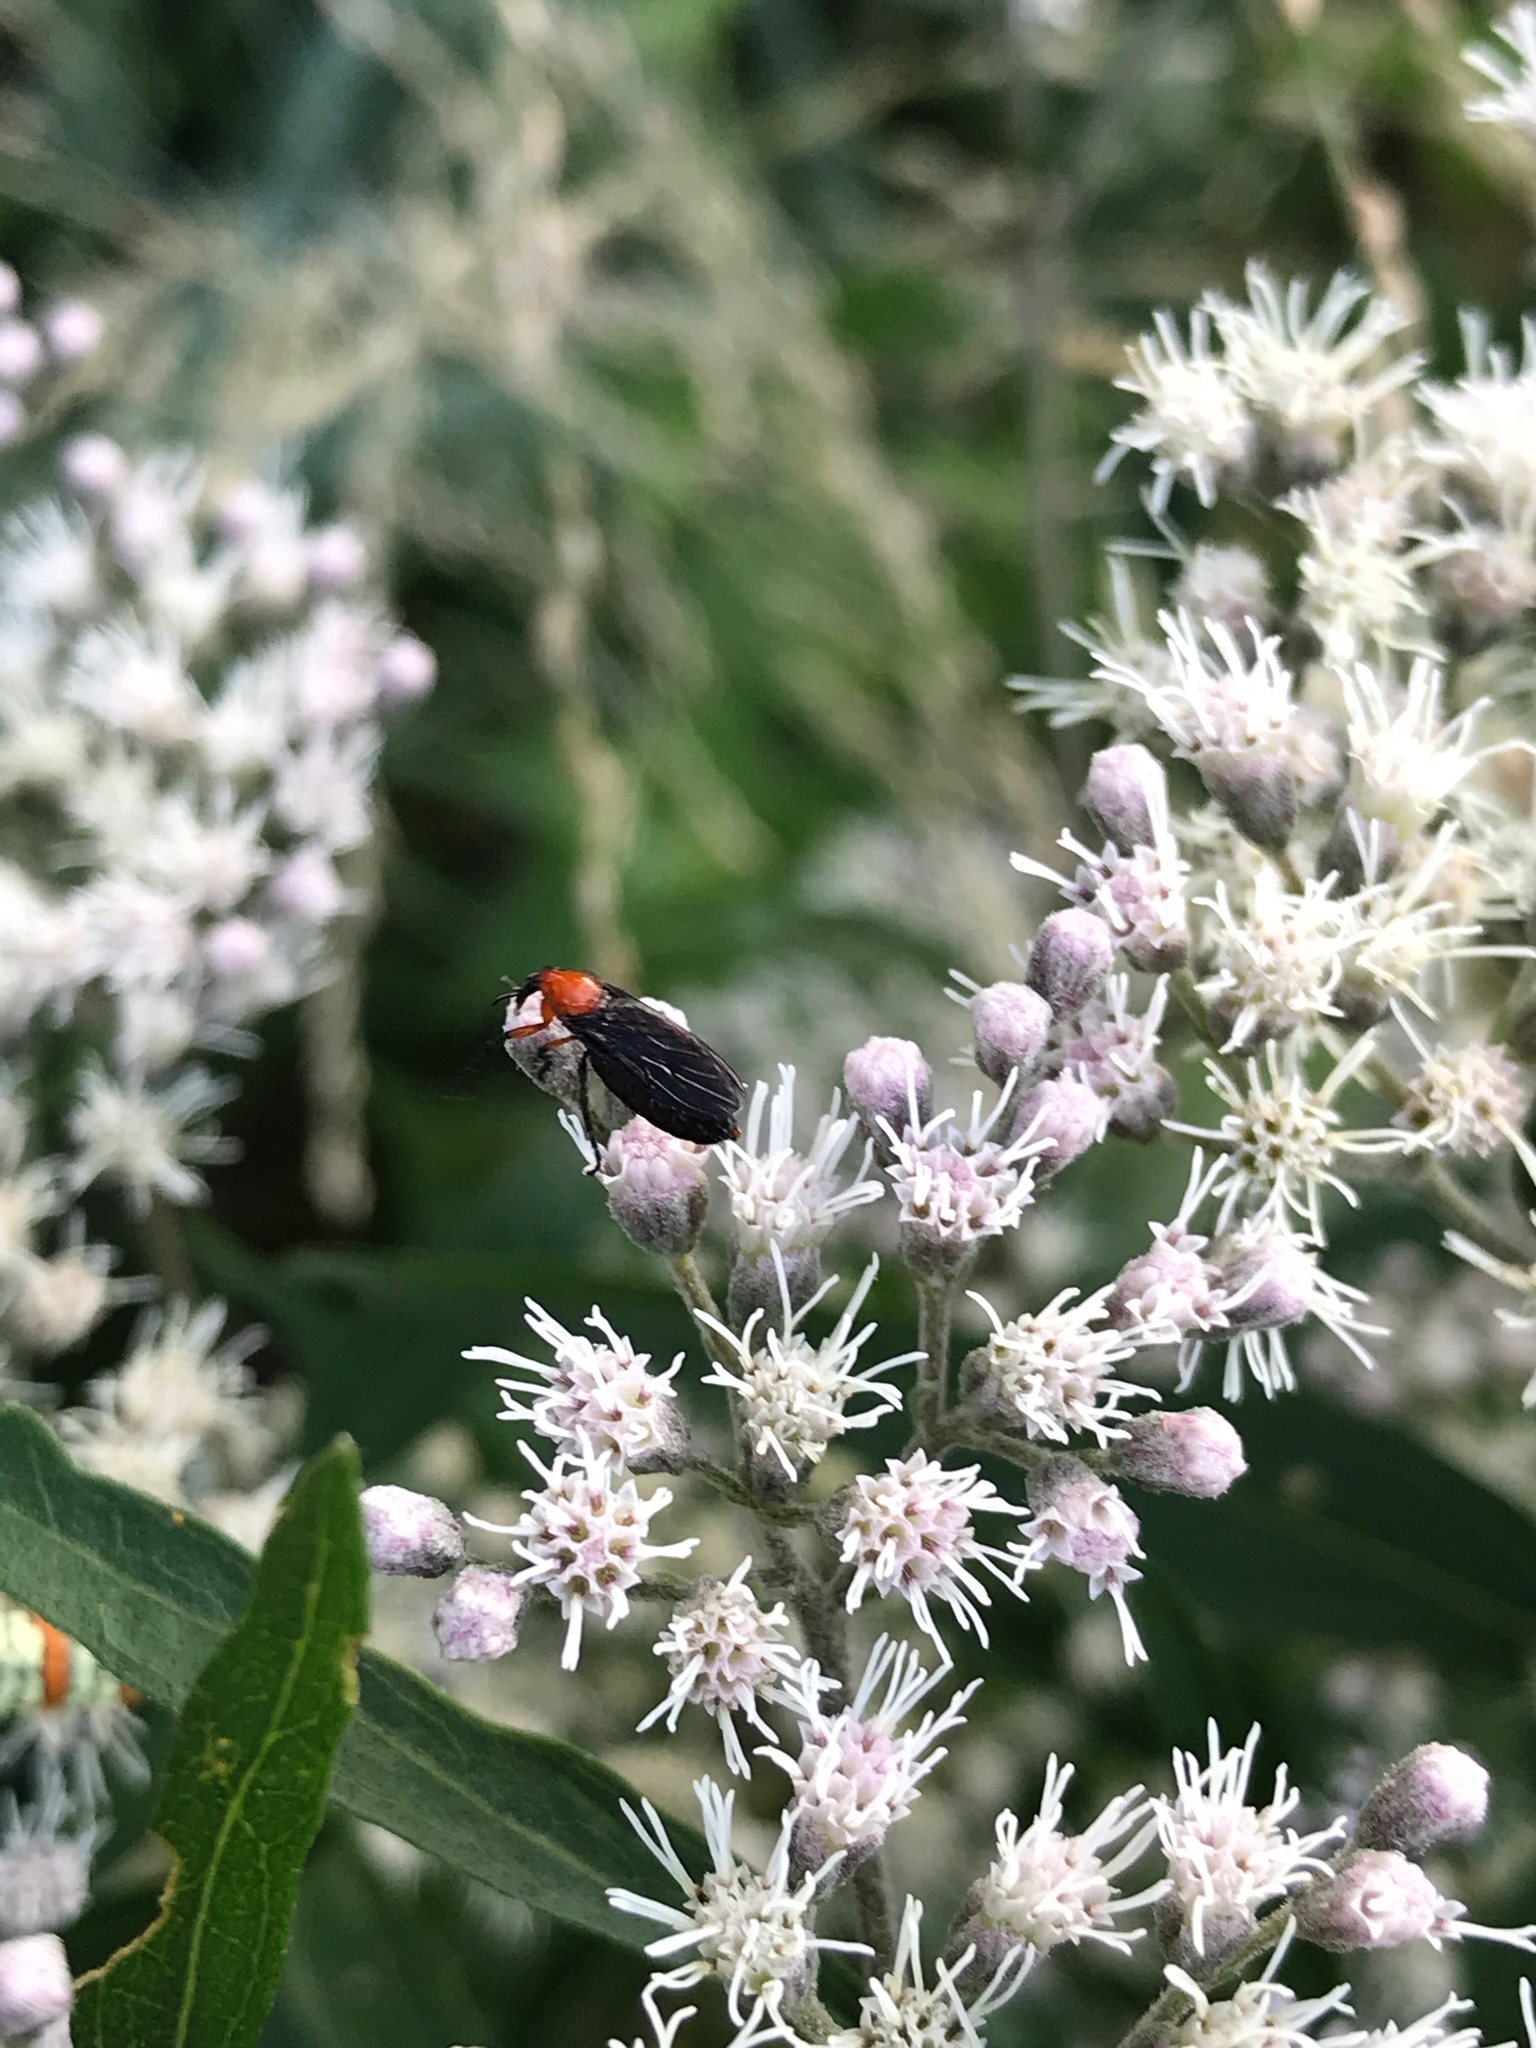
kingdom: Animalia
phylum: Arthropoda
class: Insecta
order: Diptera
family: Bibionidae
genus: Dilophus
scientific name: Dilophus spinipes
